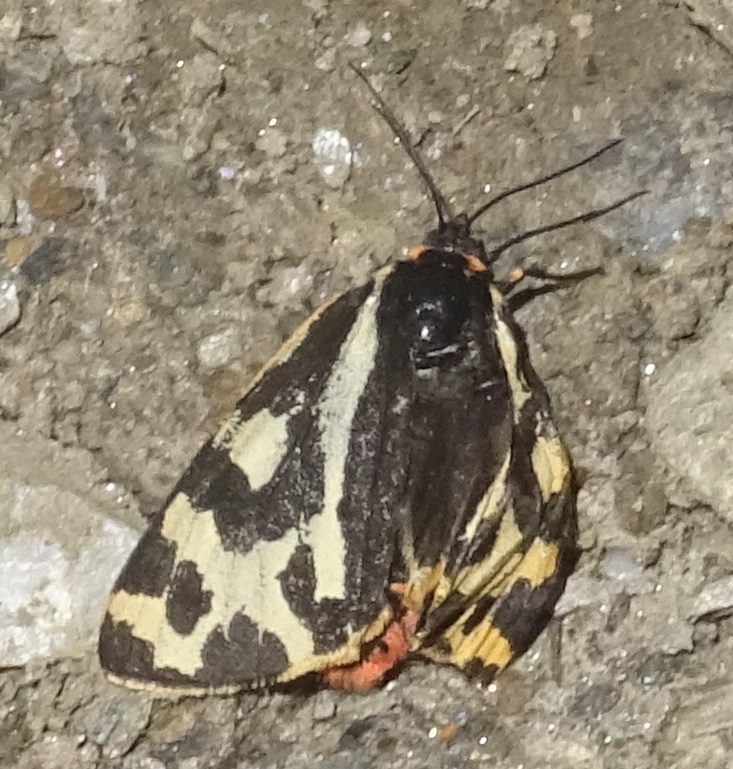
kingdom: Animalia
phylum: Arthropoda
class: Insecta
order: Lepidoptera
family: Erebidae
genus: Parasemia
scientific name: Parasemia plantaginis
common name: Wood tiger
